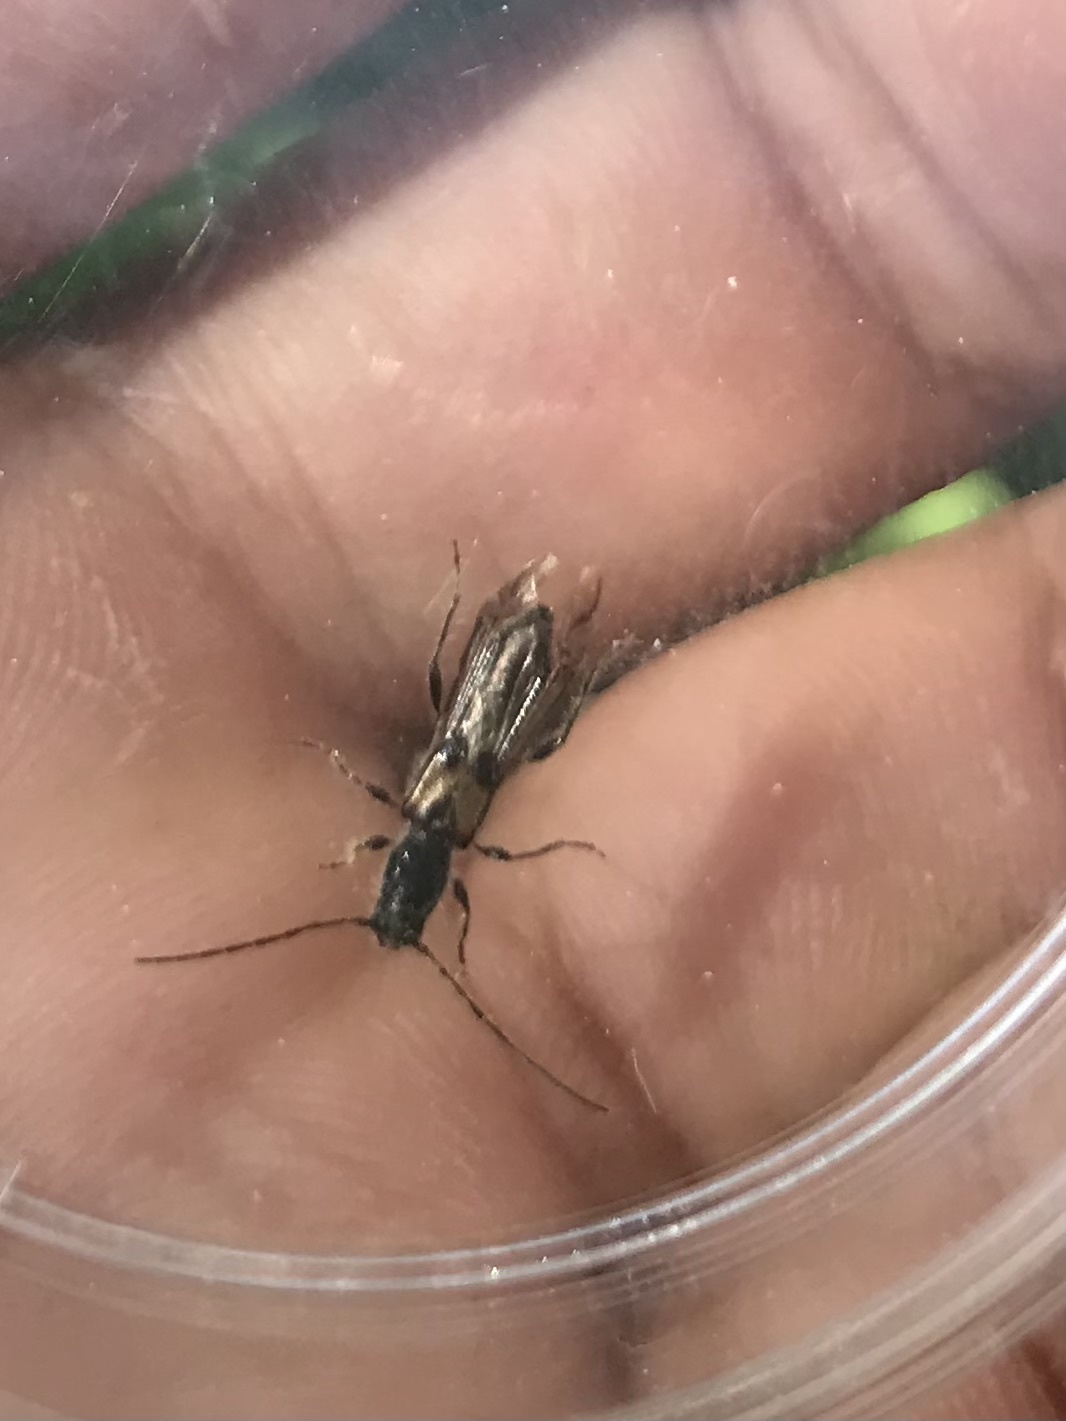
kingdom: Animalia
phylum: Arthropoda
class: Insecta
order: Coleoptera
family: Cerambycidae
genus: Molorchus
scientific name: Molorchus bimaculatus
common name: Bimaculate longhorn beetle
